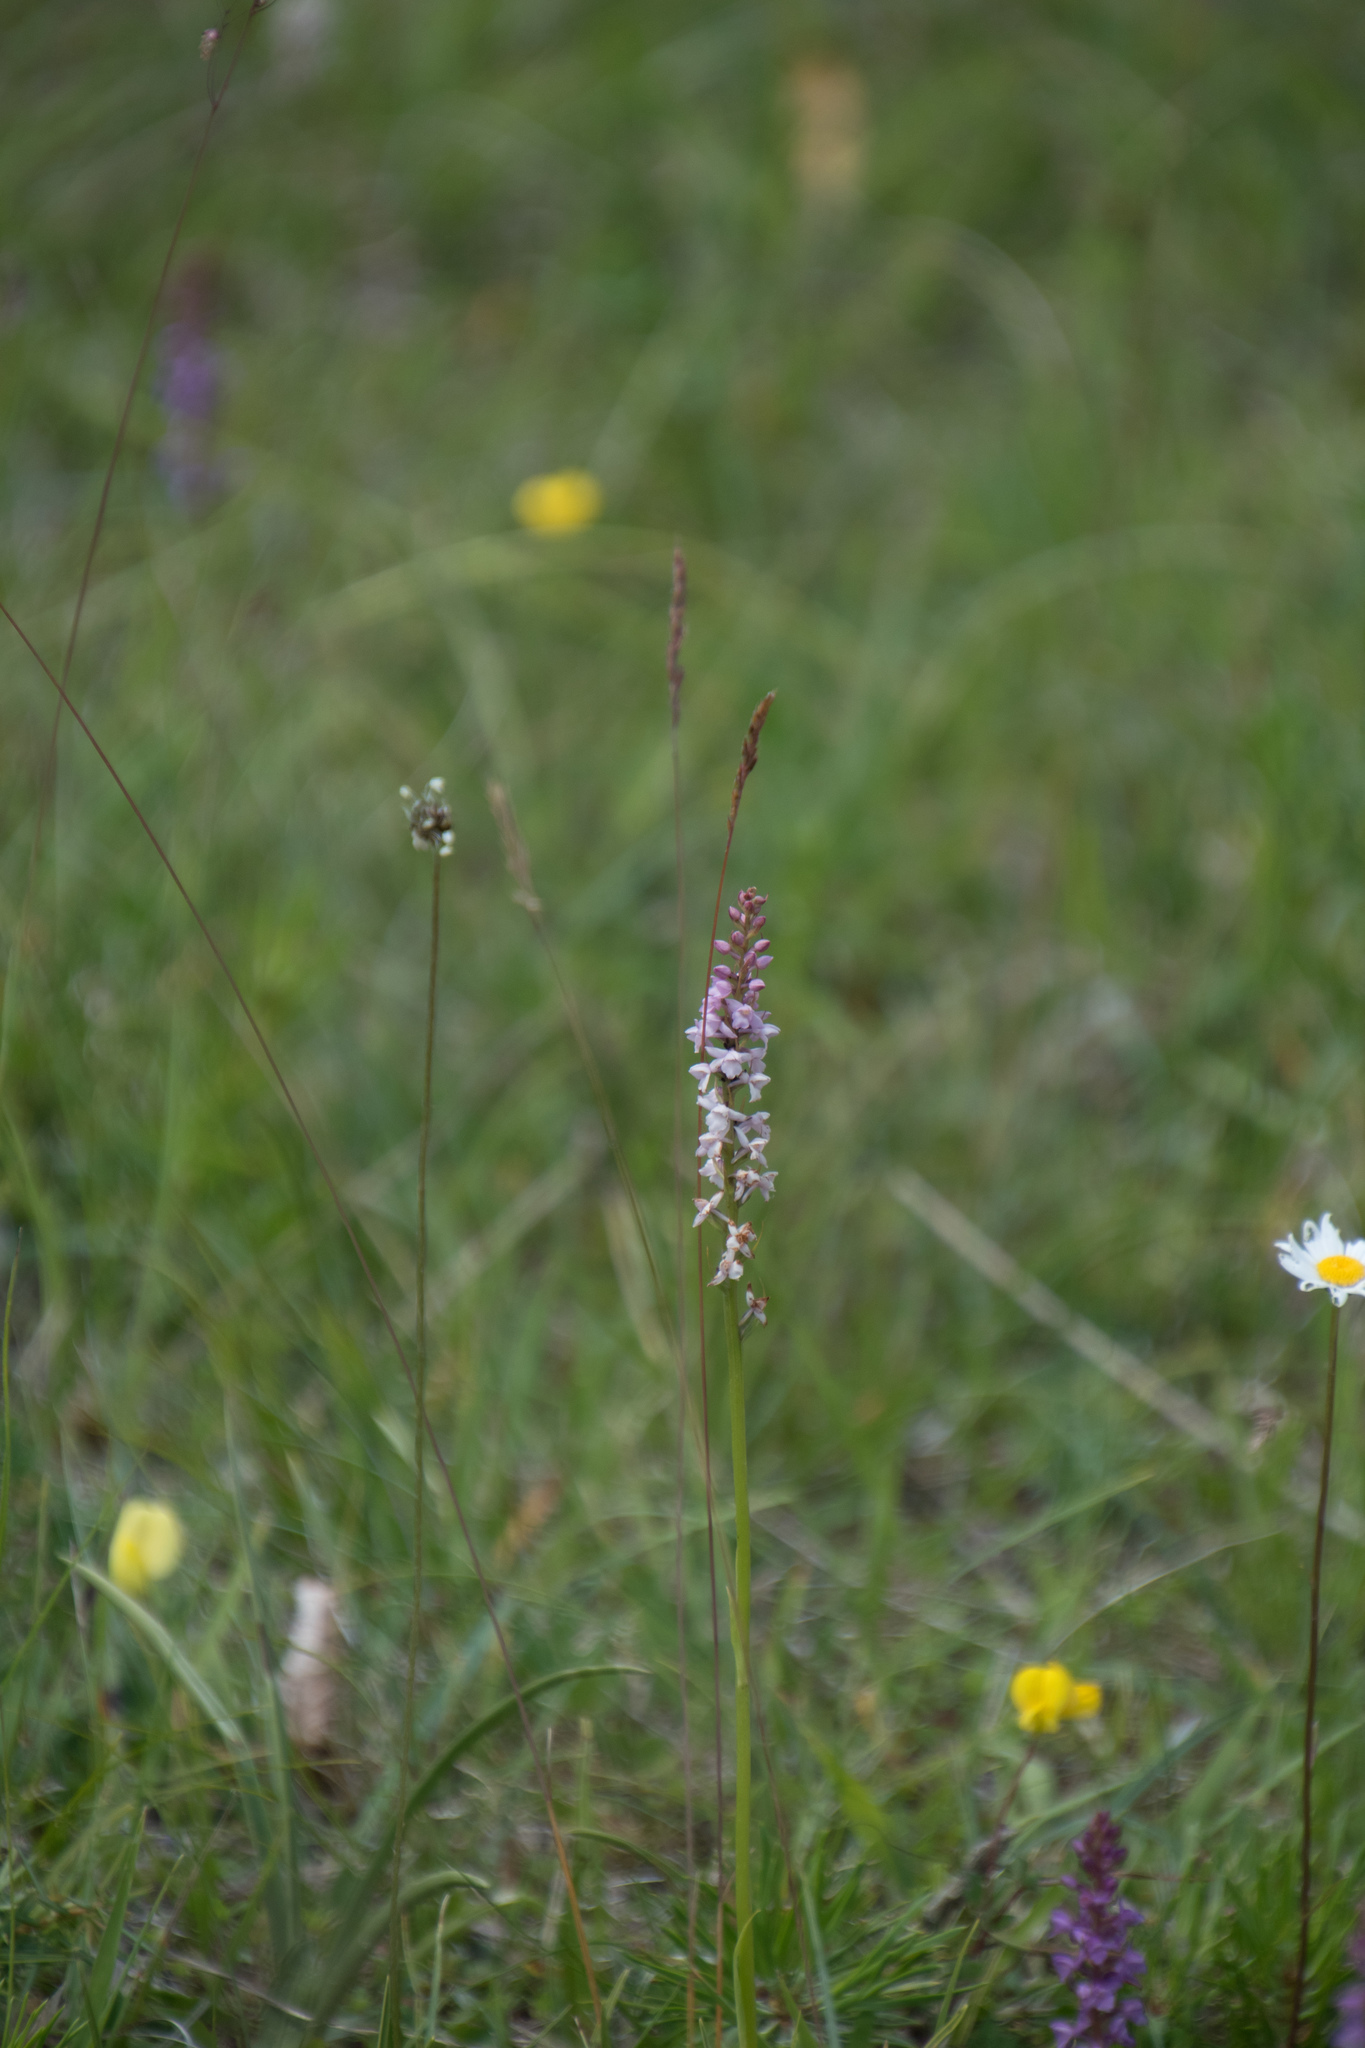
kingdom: Plantae
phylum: Tracheophyta
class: Liliopsida
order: Asparagales
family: Orchidaceae
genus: Gymnadenia
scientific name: Gymnadenia odoratissima
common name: Scented gymnadenia
